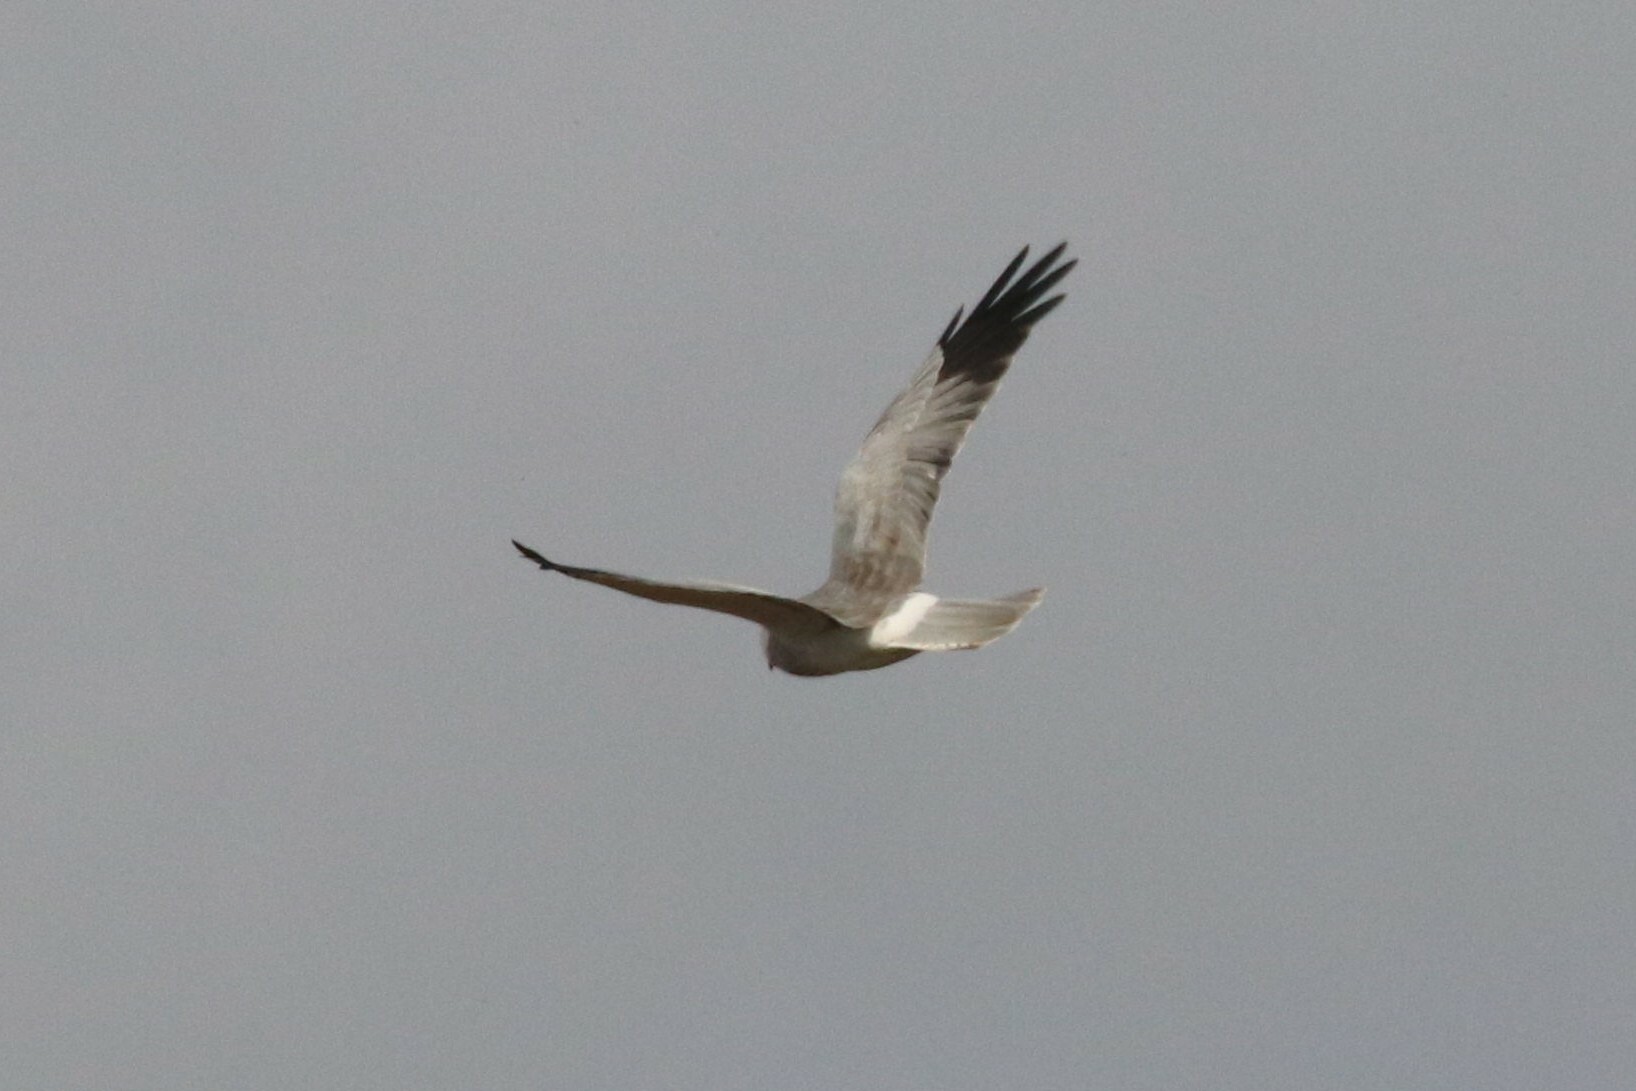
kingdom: Animalia
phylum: Chordata
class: Aves
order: Accipitriformes
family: Accipitridae
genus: Circus
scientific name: Circus cyaneus
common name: Hen harrier
